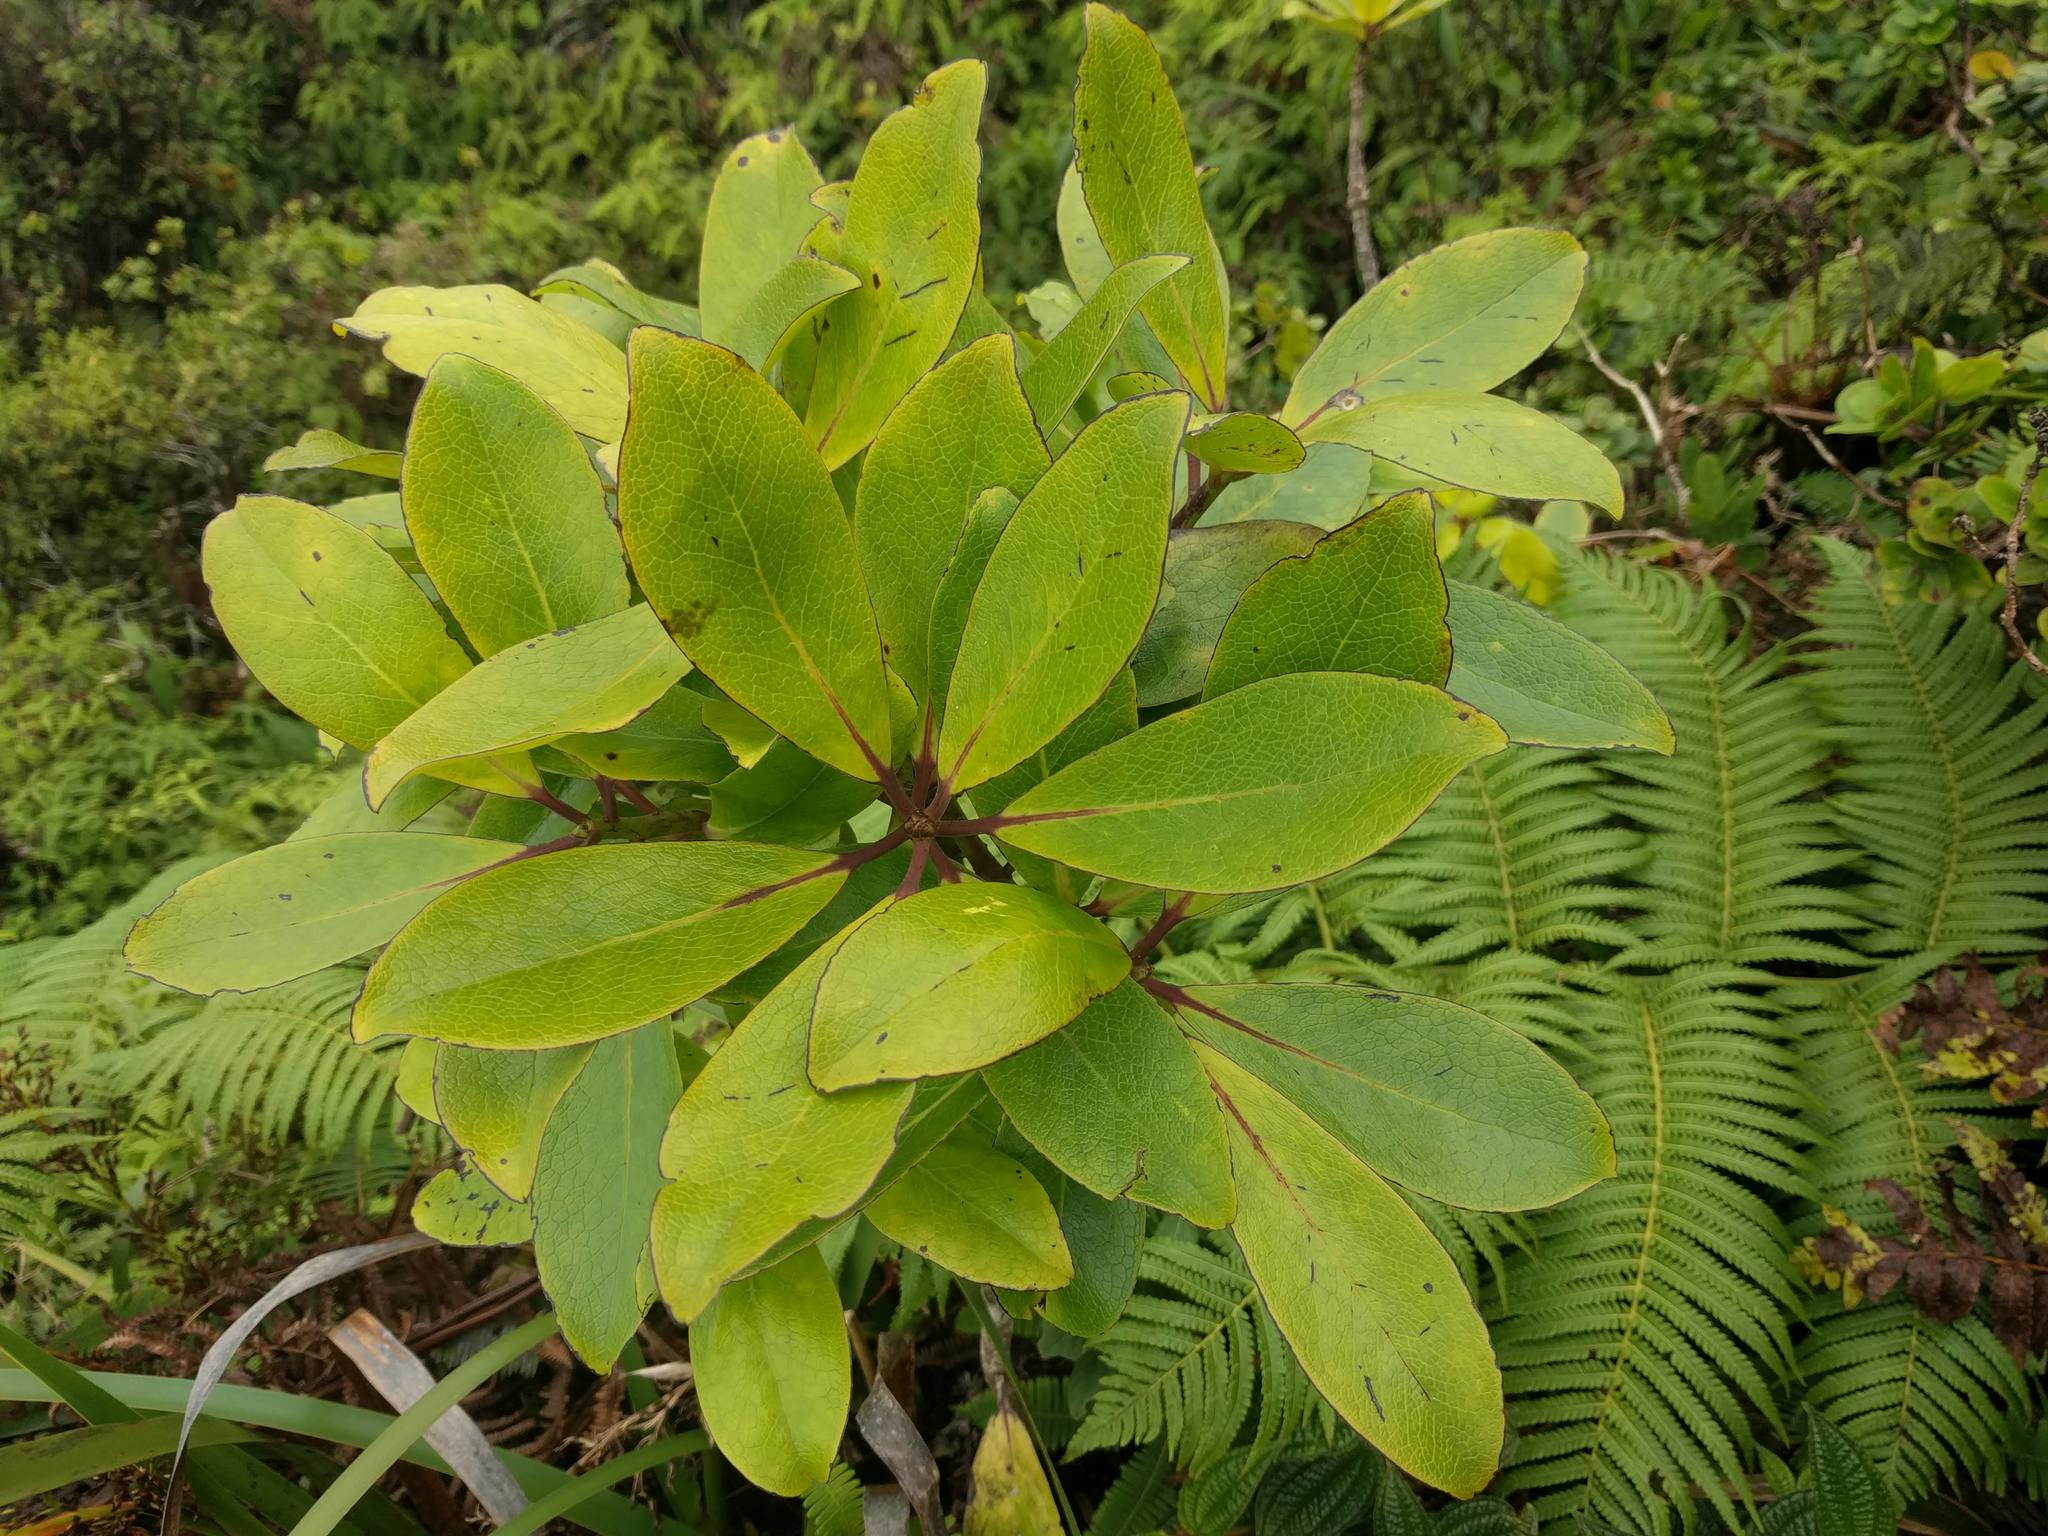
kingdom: Plantae
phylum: Tracheophyta
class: Magnoliopsida
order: Aquifoliales
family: Aquifoliaceae
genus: Ilex
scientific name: Ilex anomala
